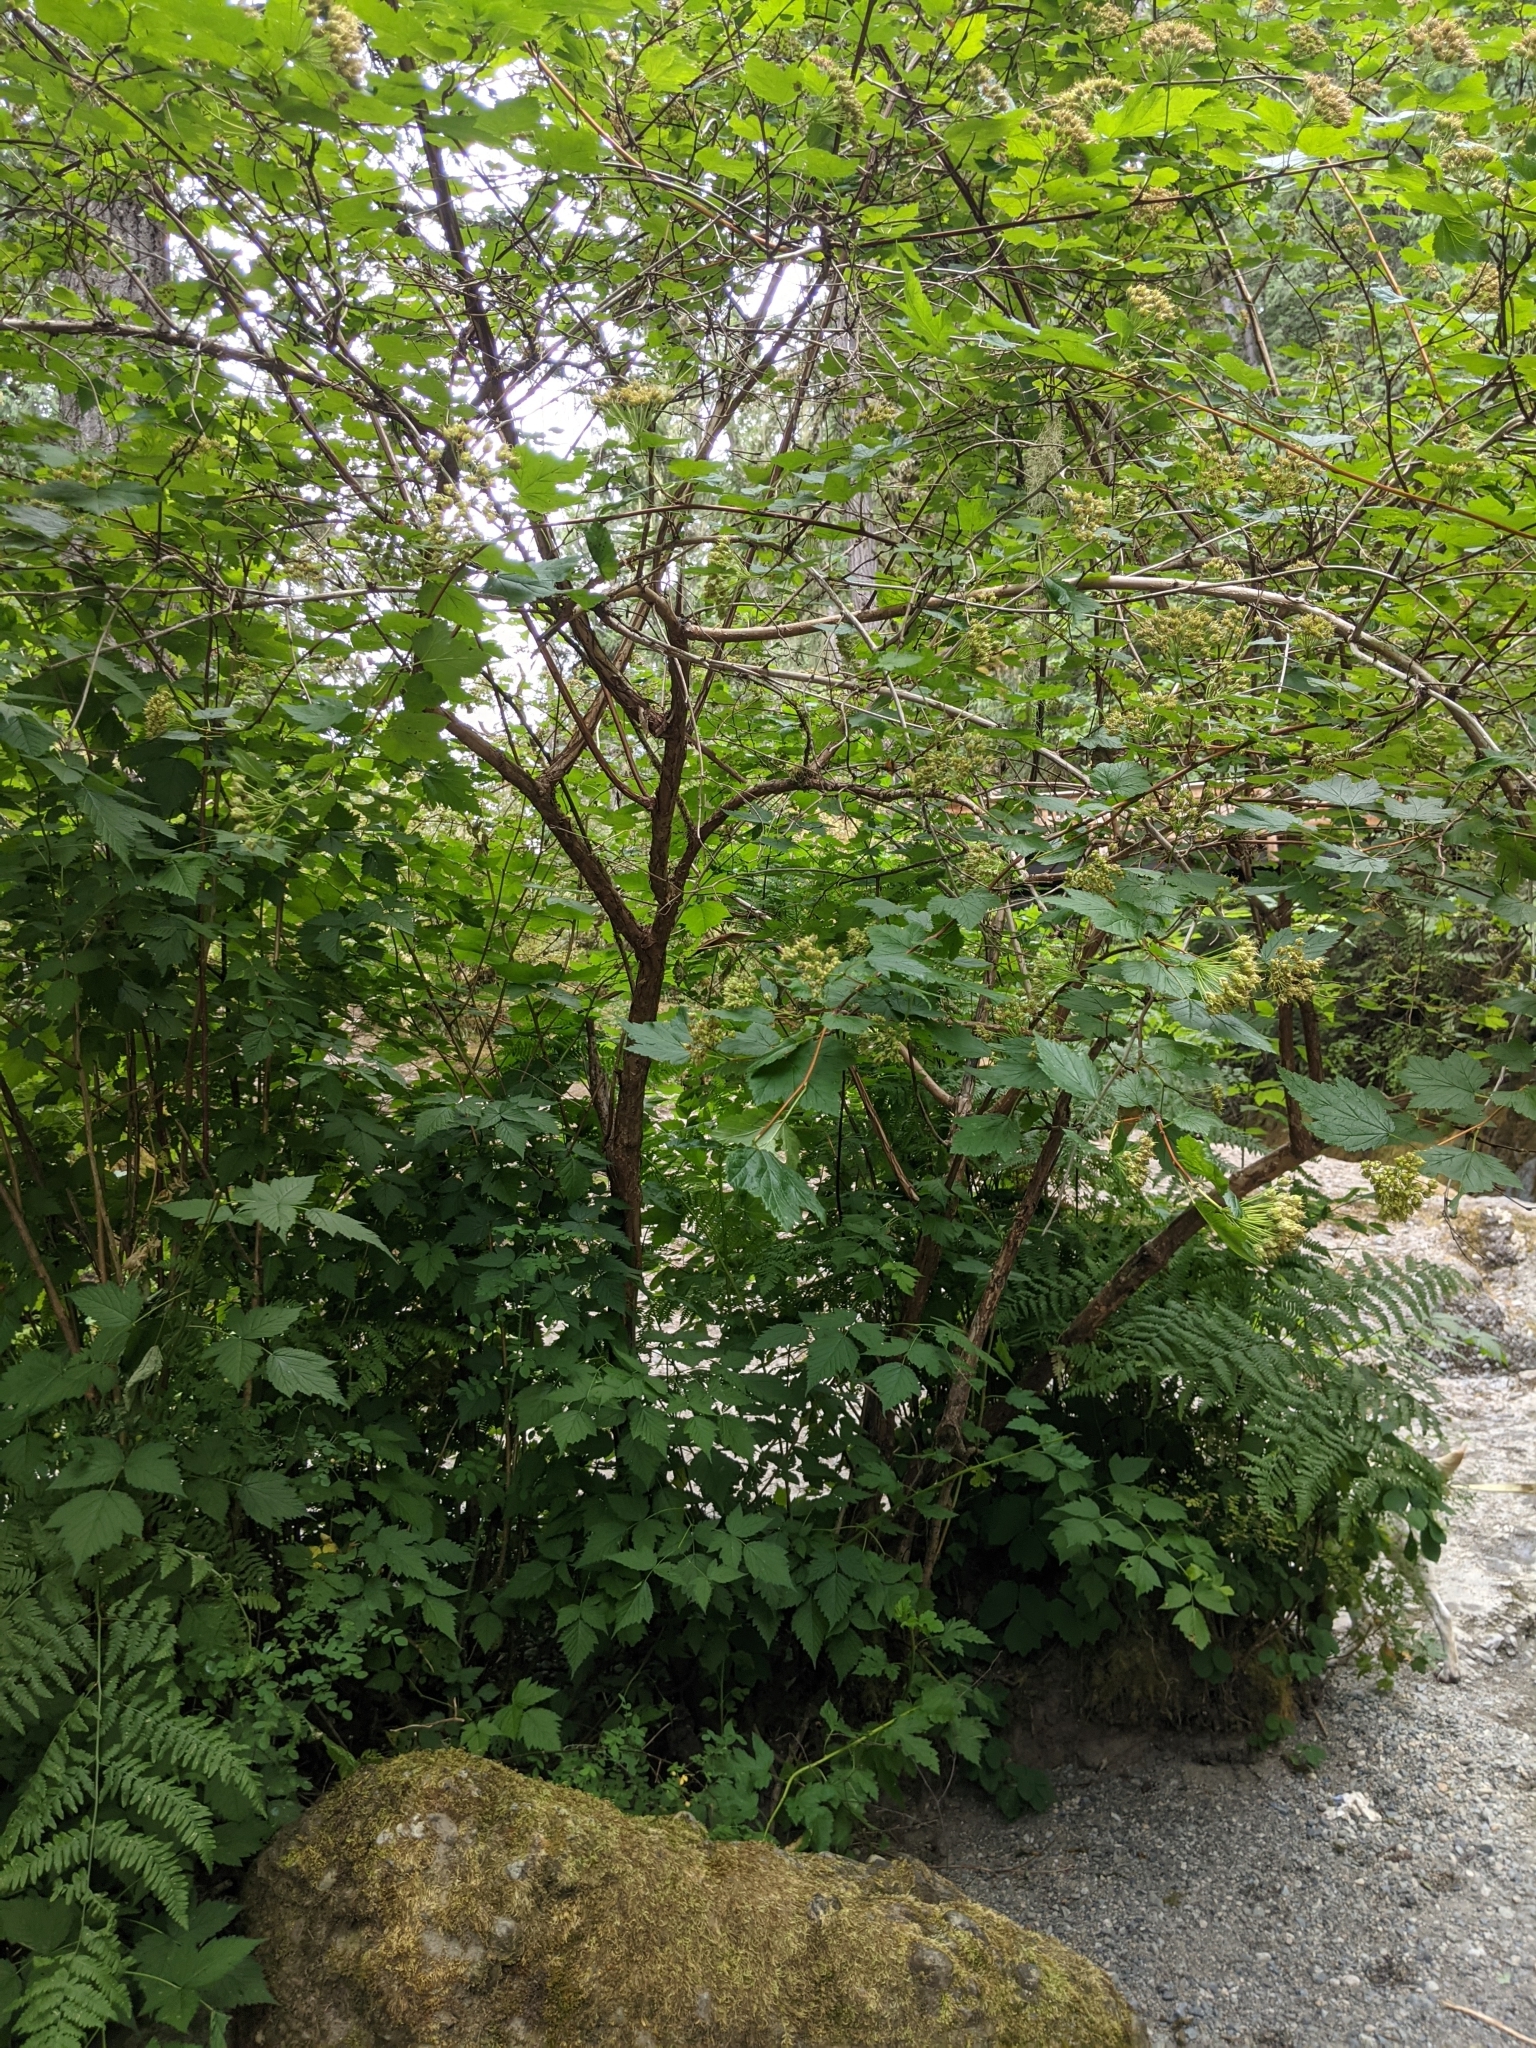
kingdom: Plantae
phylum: Tracheophyta
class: Magnoliopsida
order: Rosales
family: Rosaceae
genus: Physocarpus
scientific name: Physocarpus capitatus
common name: Pacific ninebark
